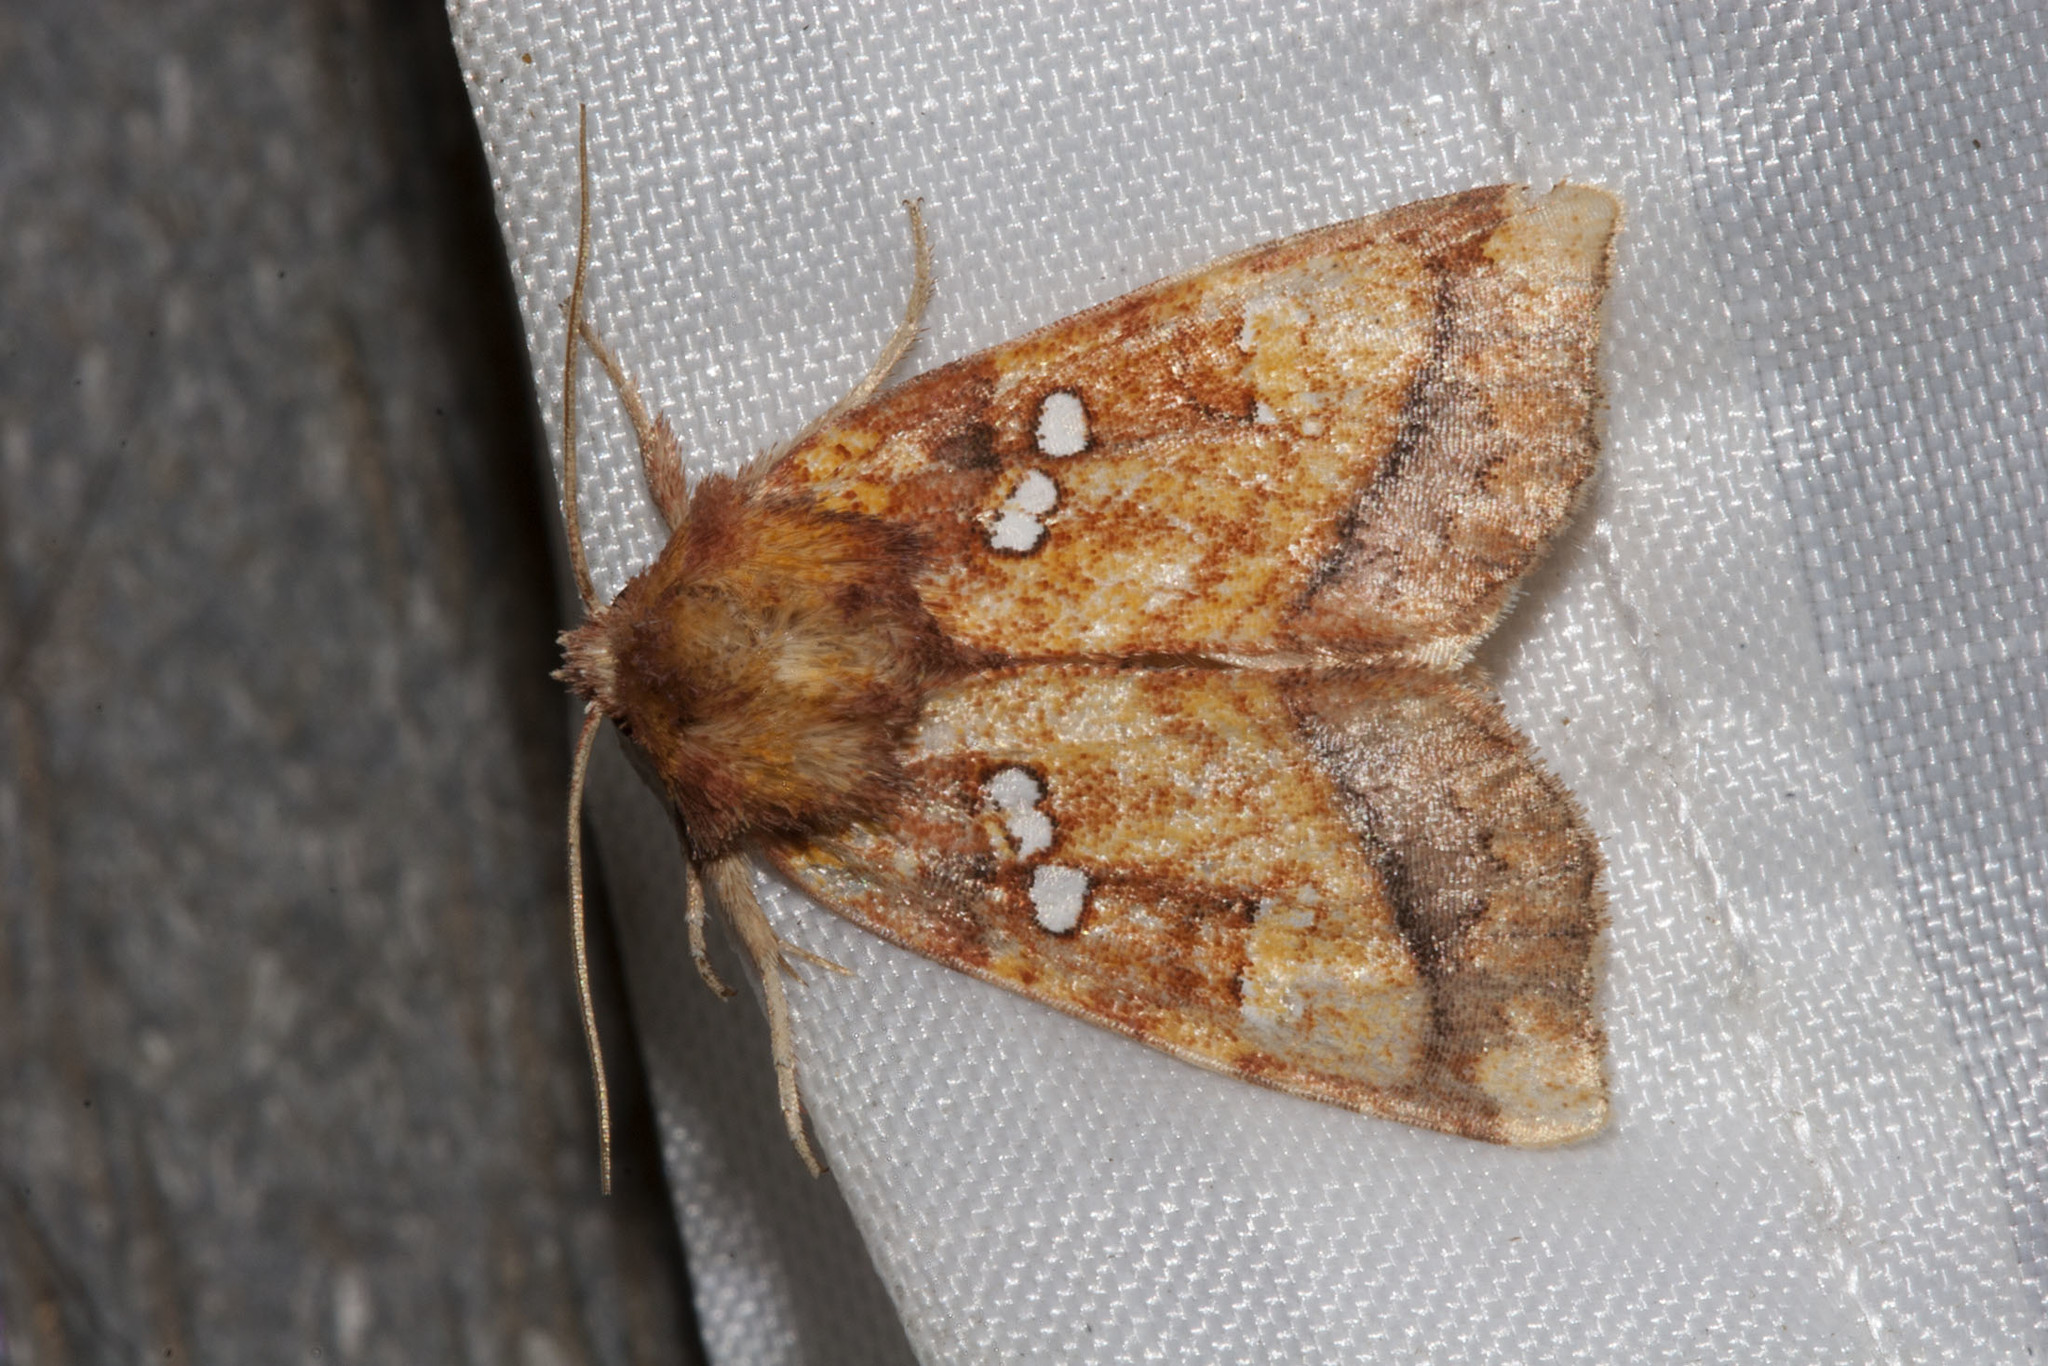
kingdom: Animalia
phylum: Arthropoda
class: Insecta
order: Lepidoptera
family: Noctuidae
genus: Papaipema
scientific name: Papaipema pterisii
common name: Bracken borer moth
